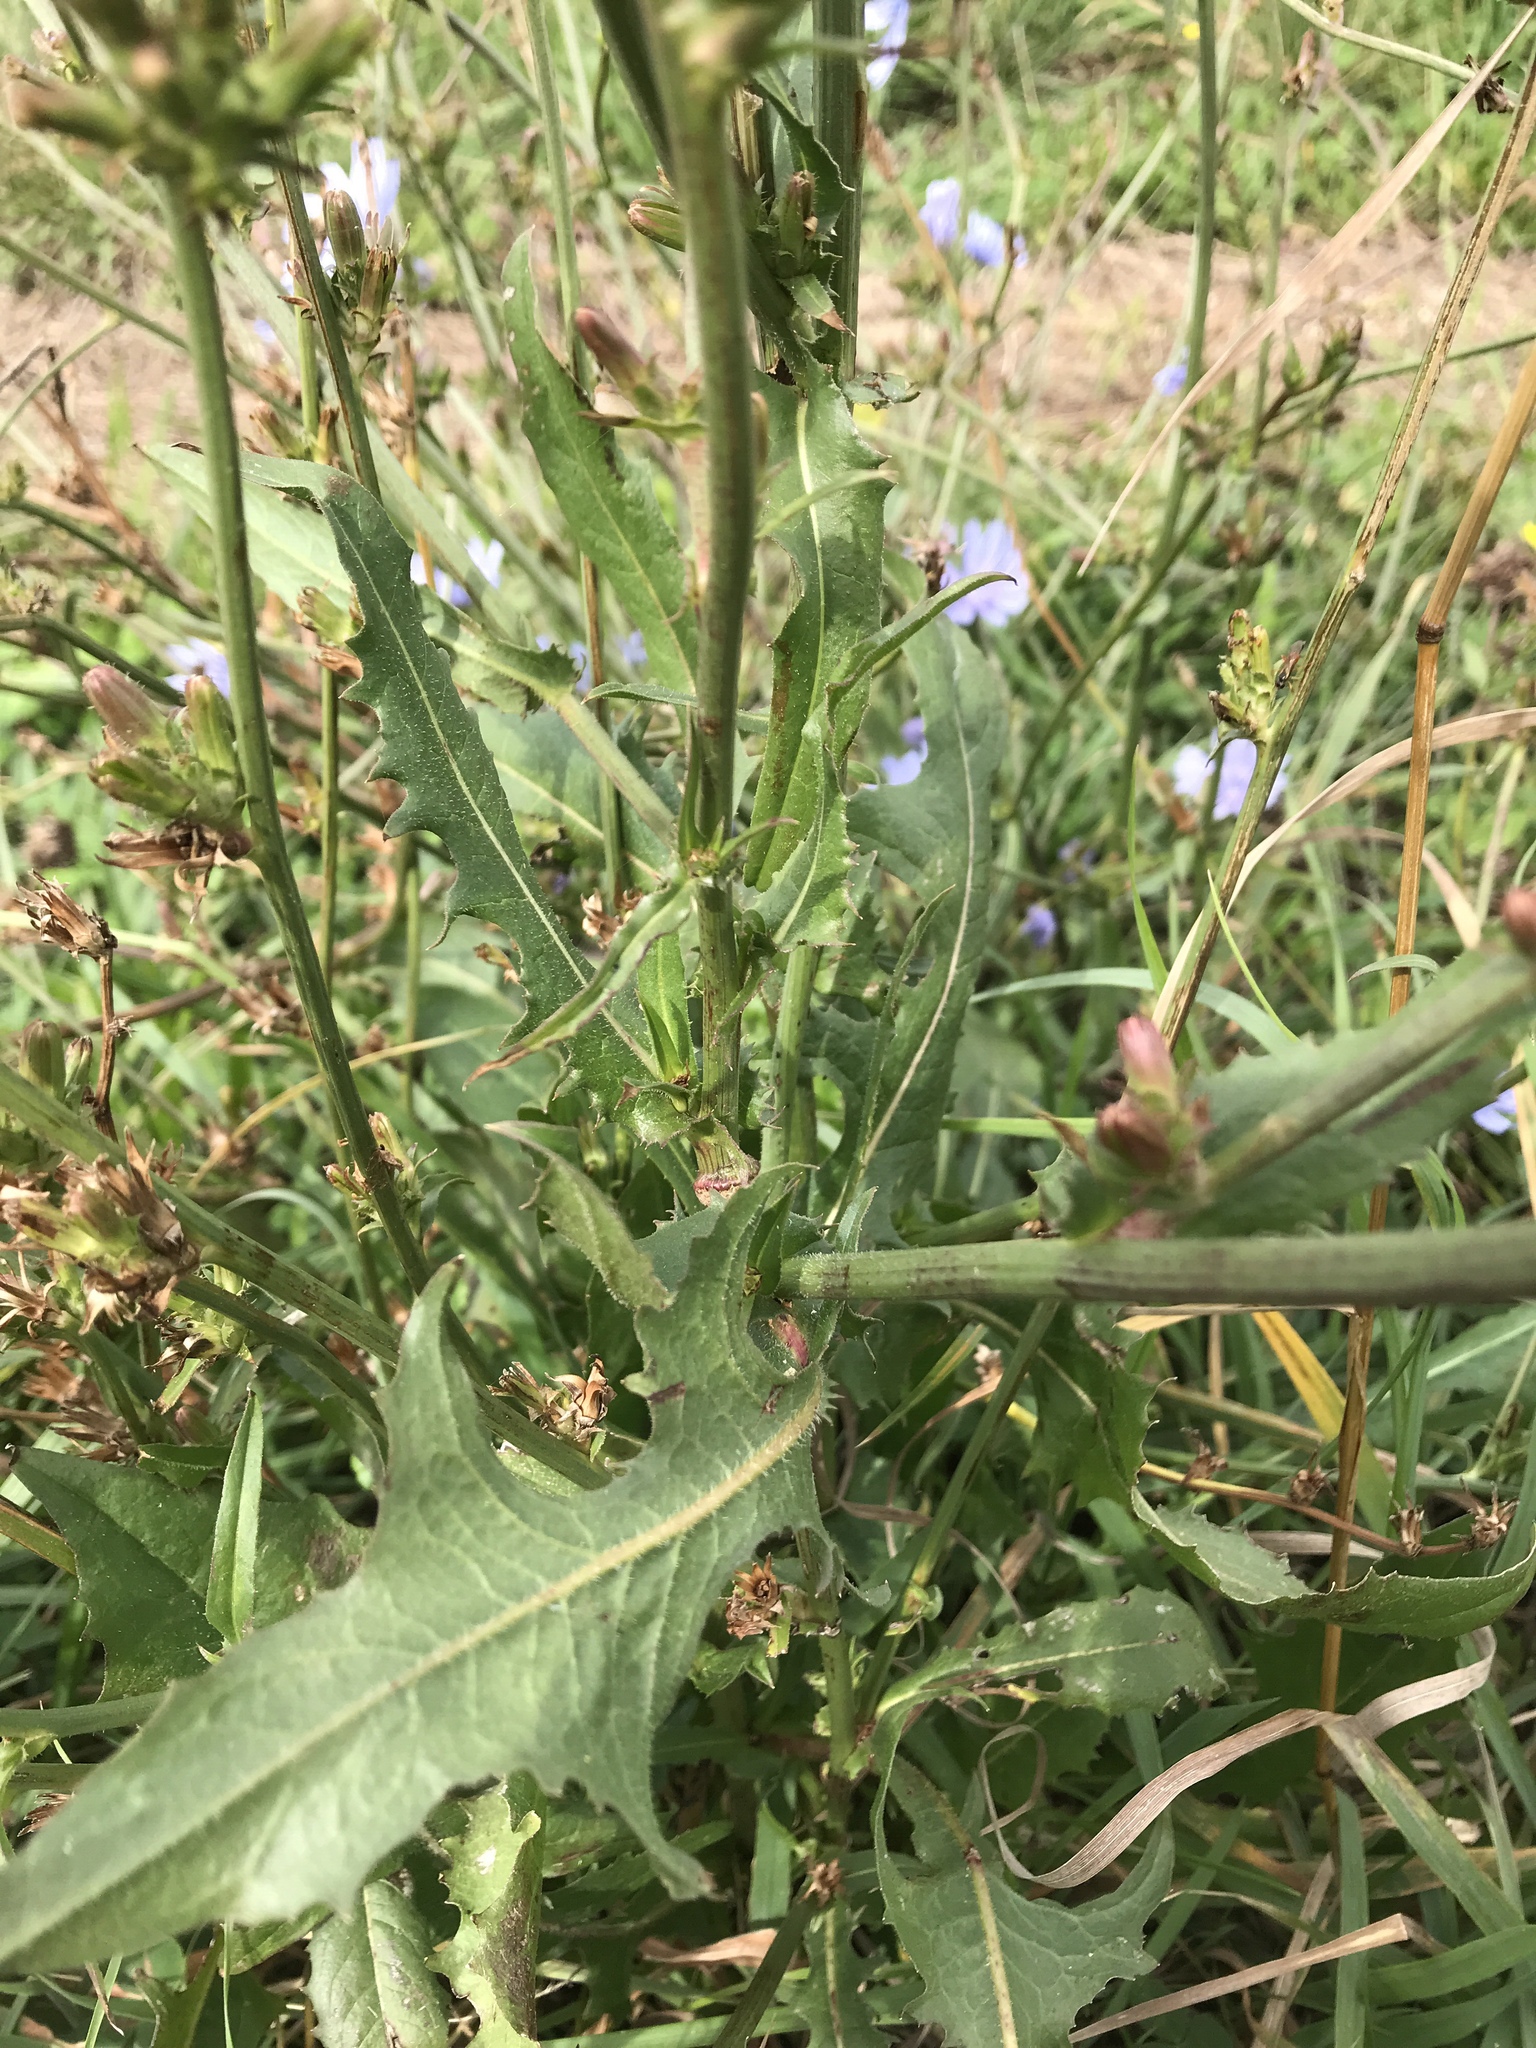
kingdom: Plantae
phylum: Tracheophyta
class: Magnoliopsida
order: Asterales
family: Asteraceae
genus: Cichorium
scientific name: Cichorium intybus
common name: Chicory
